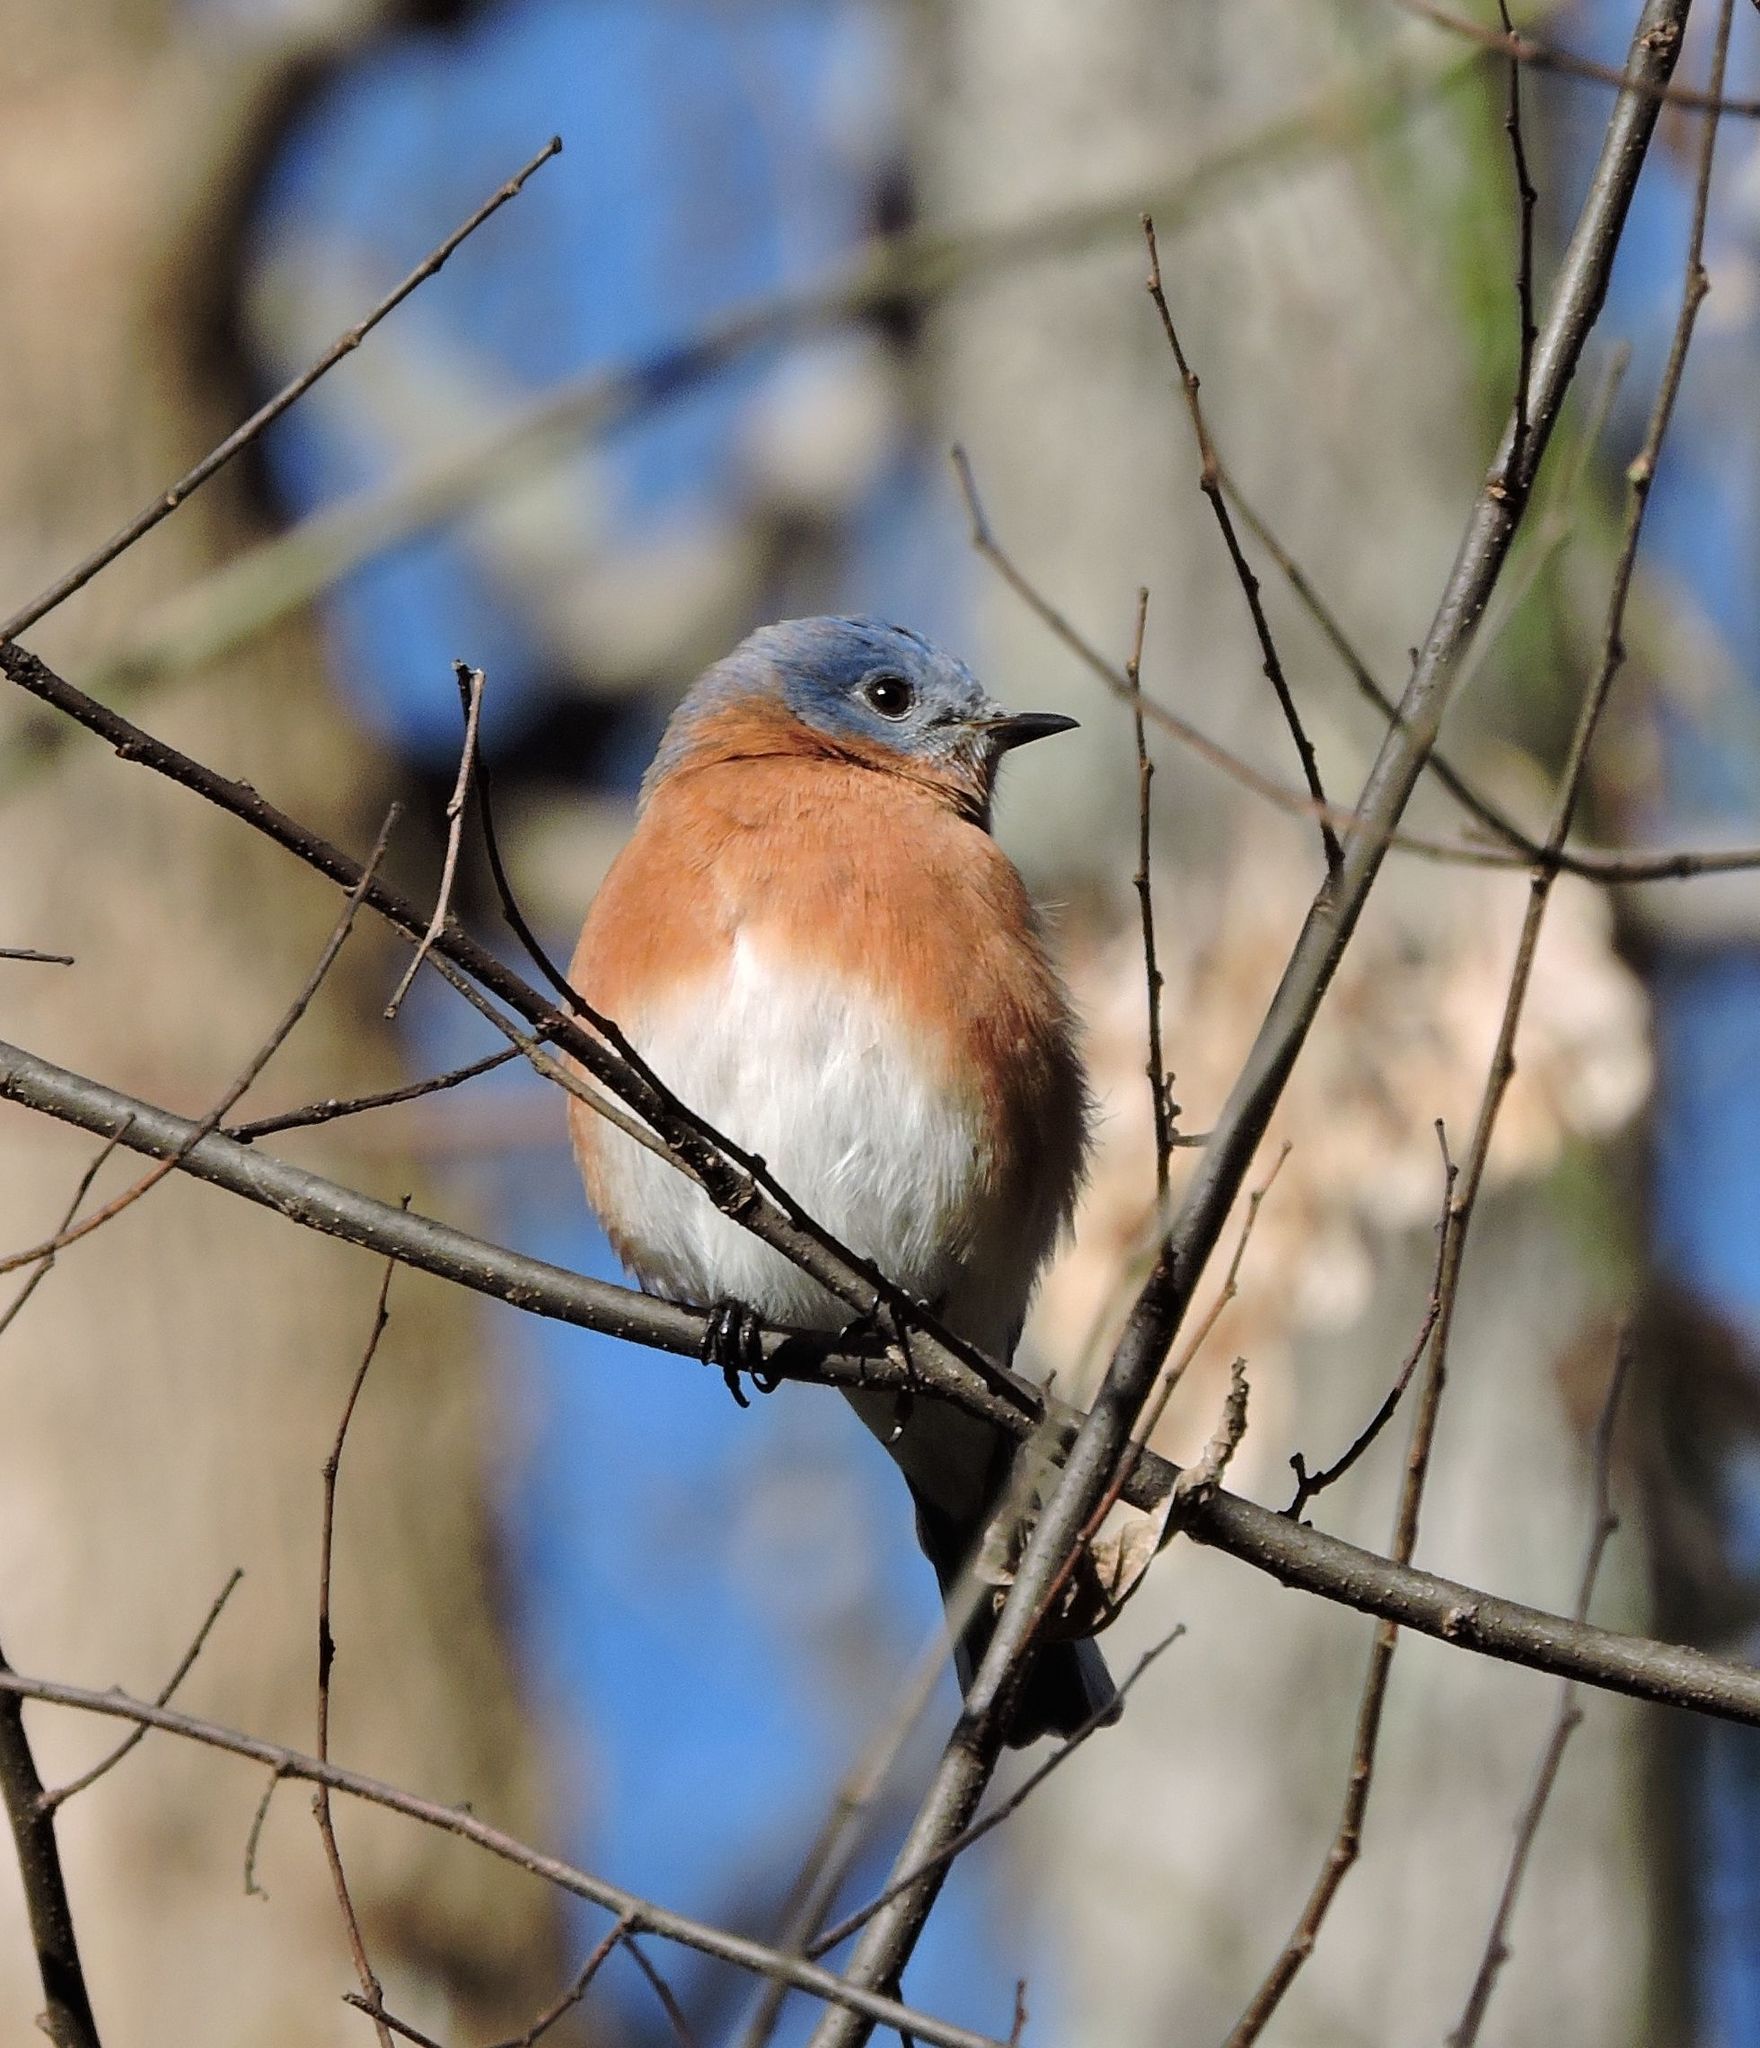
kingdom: Animalia
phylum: Chordata
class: Aves
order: Passeriformes
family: Turdidae
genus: Sialia
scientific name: Sialia sialis
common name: Eastern bluebird
